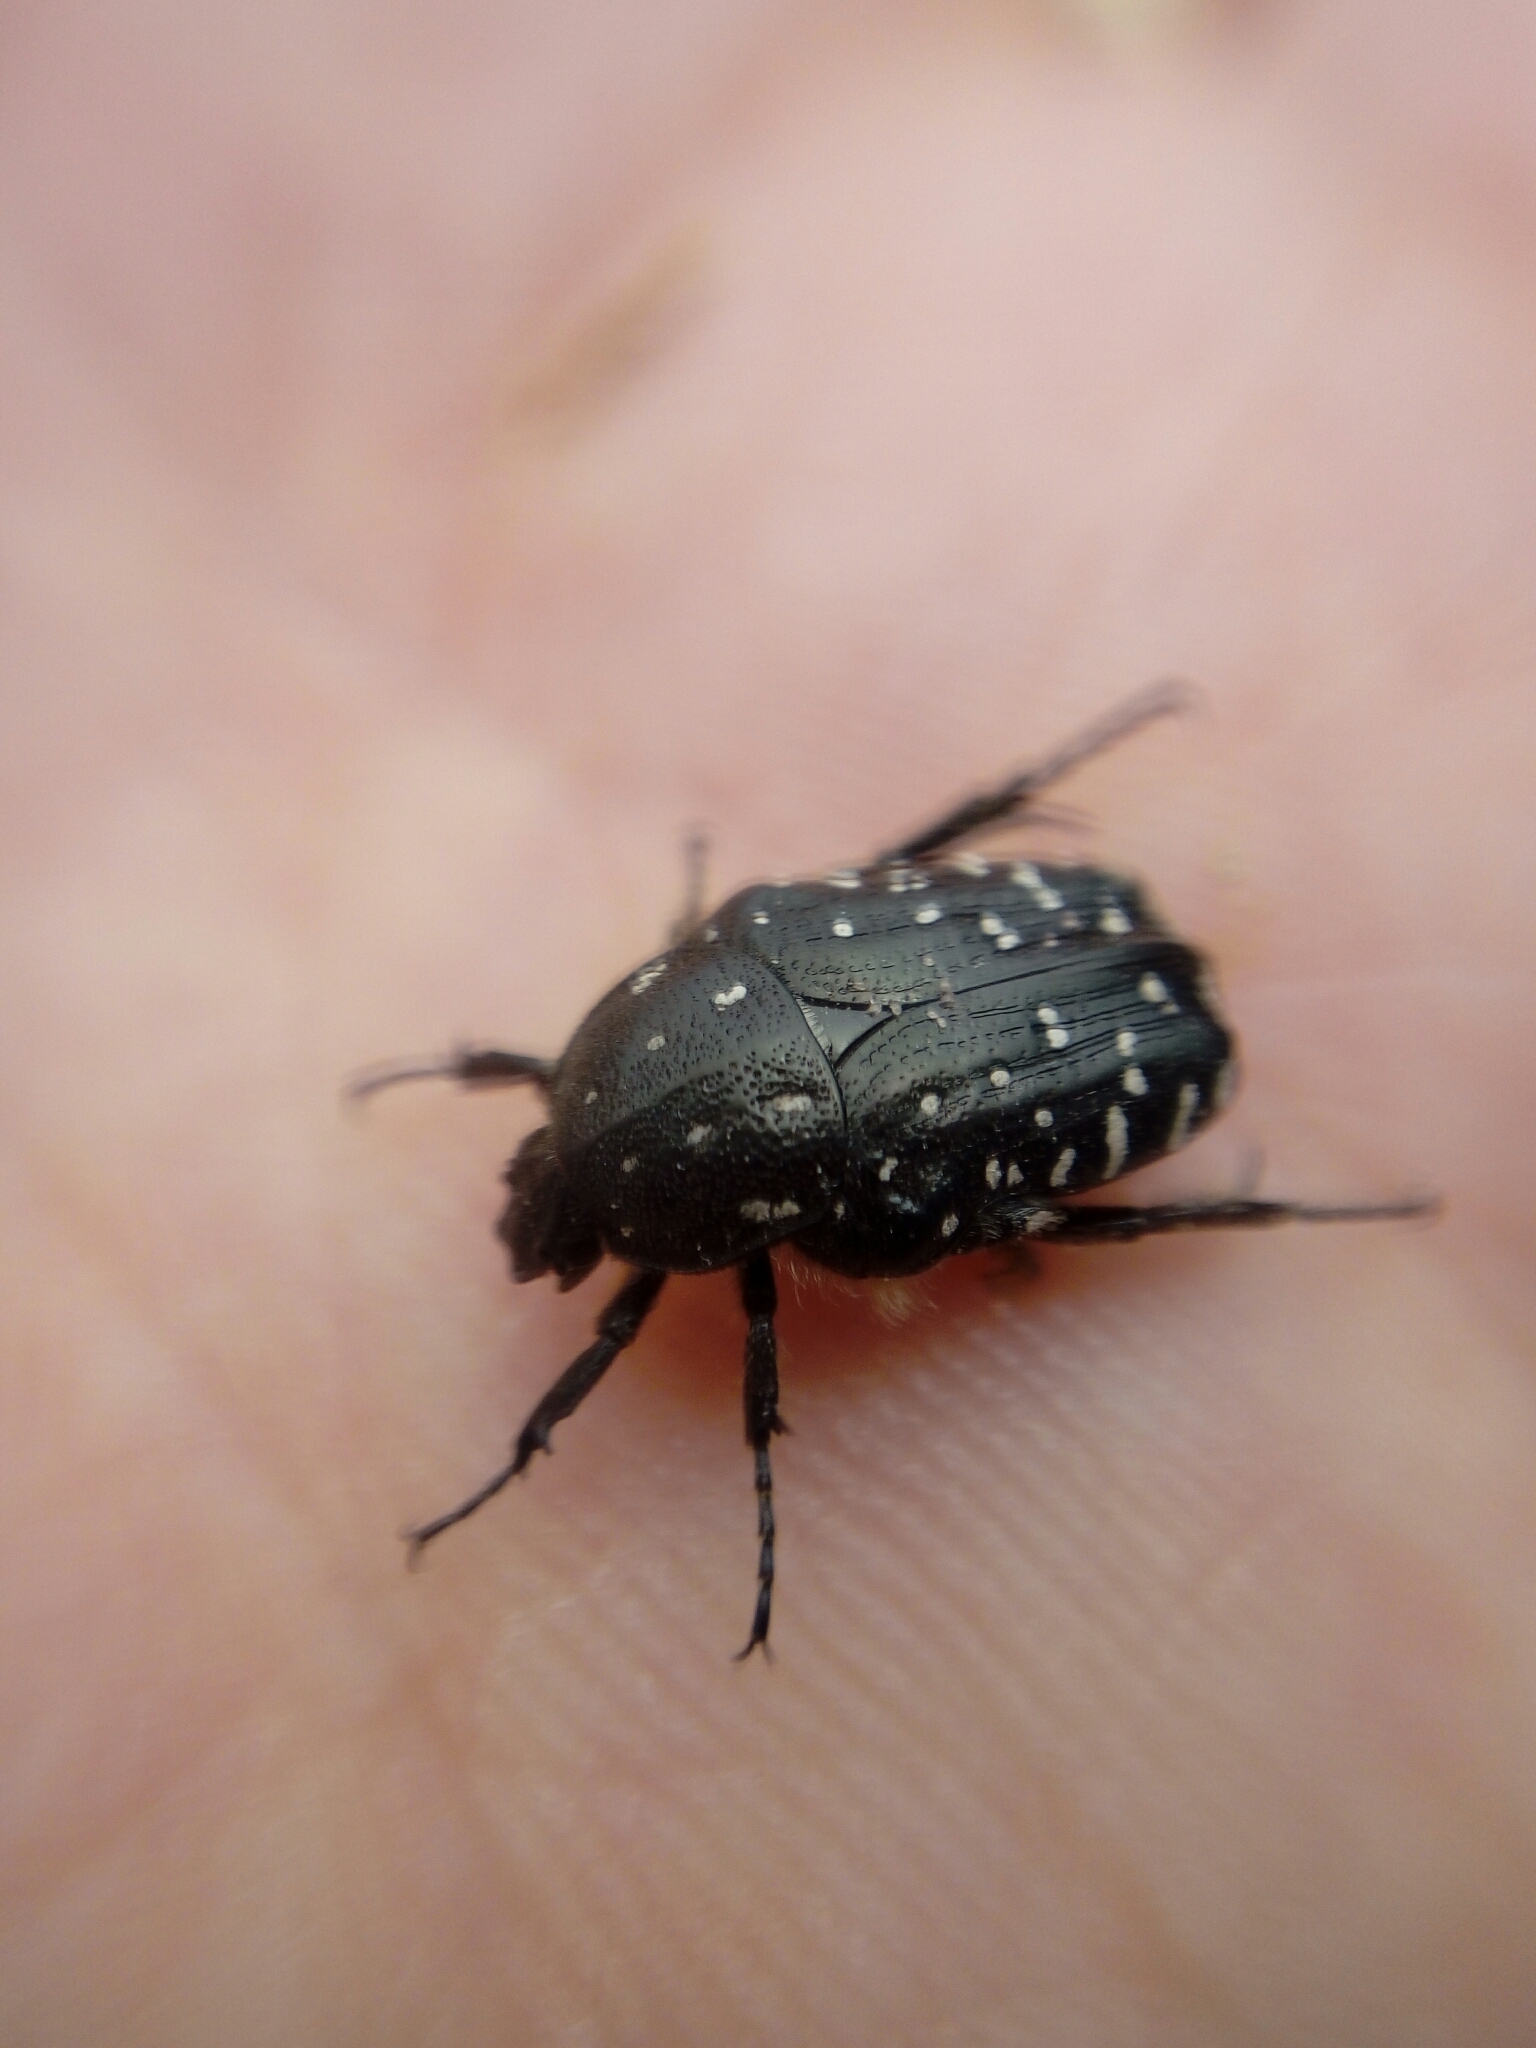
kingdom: Animalia
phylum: Arthropoda
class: Insecta
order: Coleoptera
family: Scarabaeidae
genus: Oxythyrea
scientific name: Oxythyrea funesta
